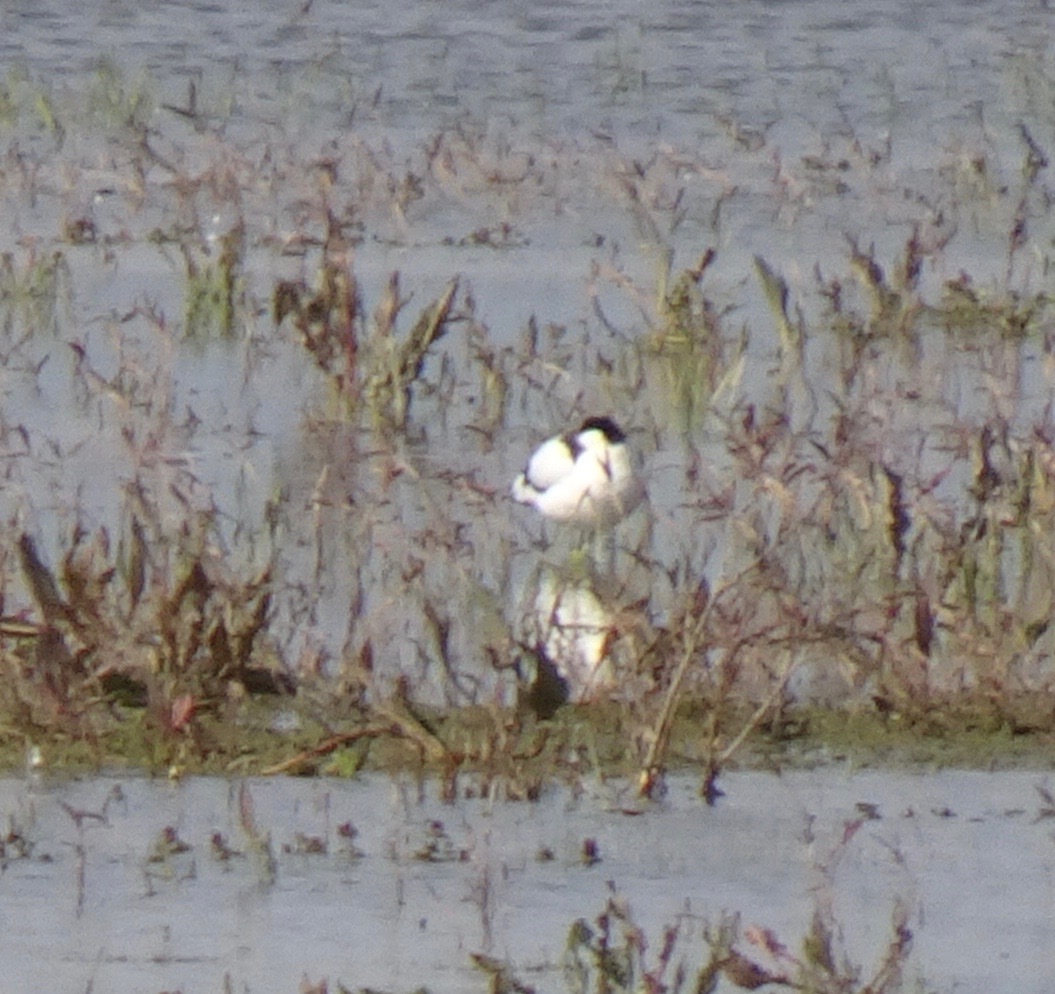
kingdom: Animalia
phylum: Chordata
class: Aves
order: Charadriiformes
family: Recurvirostridae
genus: Recurvirostra
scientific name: Recurvirostra avosetta
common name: Pied avocet
